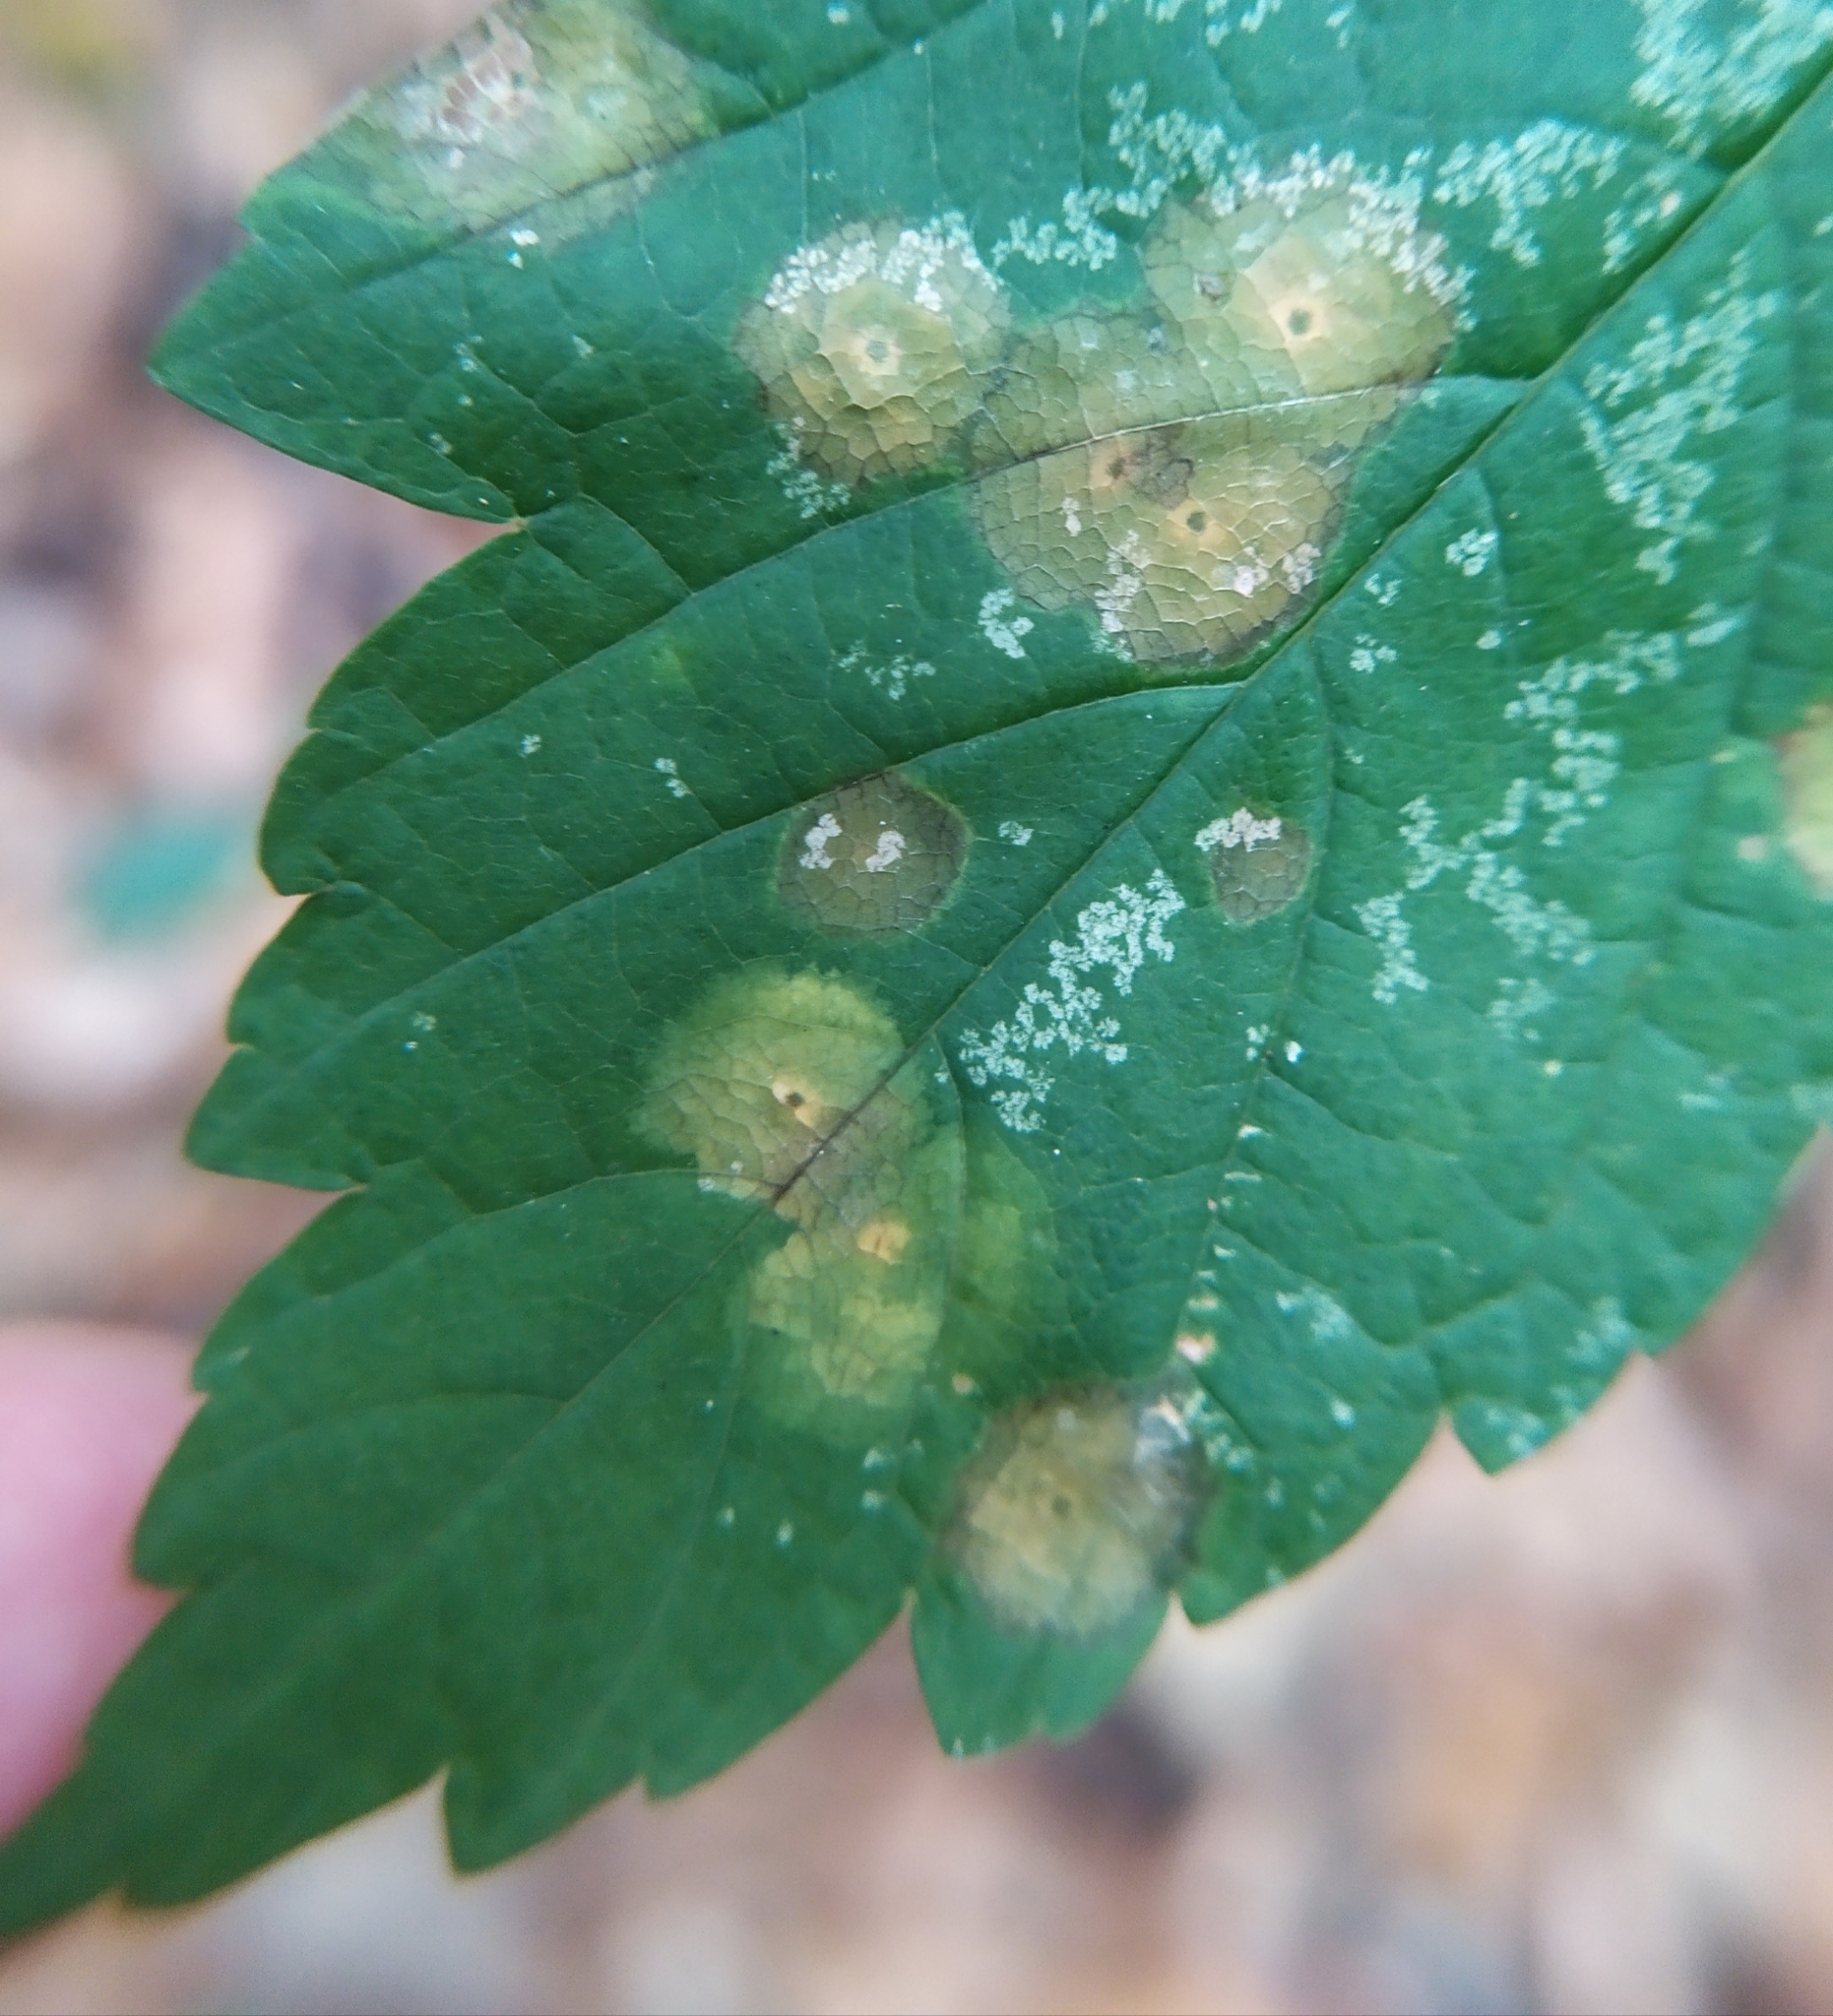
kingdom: Animalia
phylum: Arthropoda
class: Insecta
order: Diptera
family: Cecidomyiidae
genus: Drisina
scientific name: Drisina glutinosa
